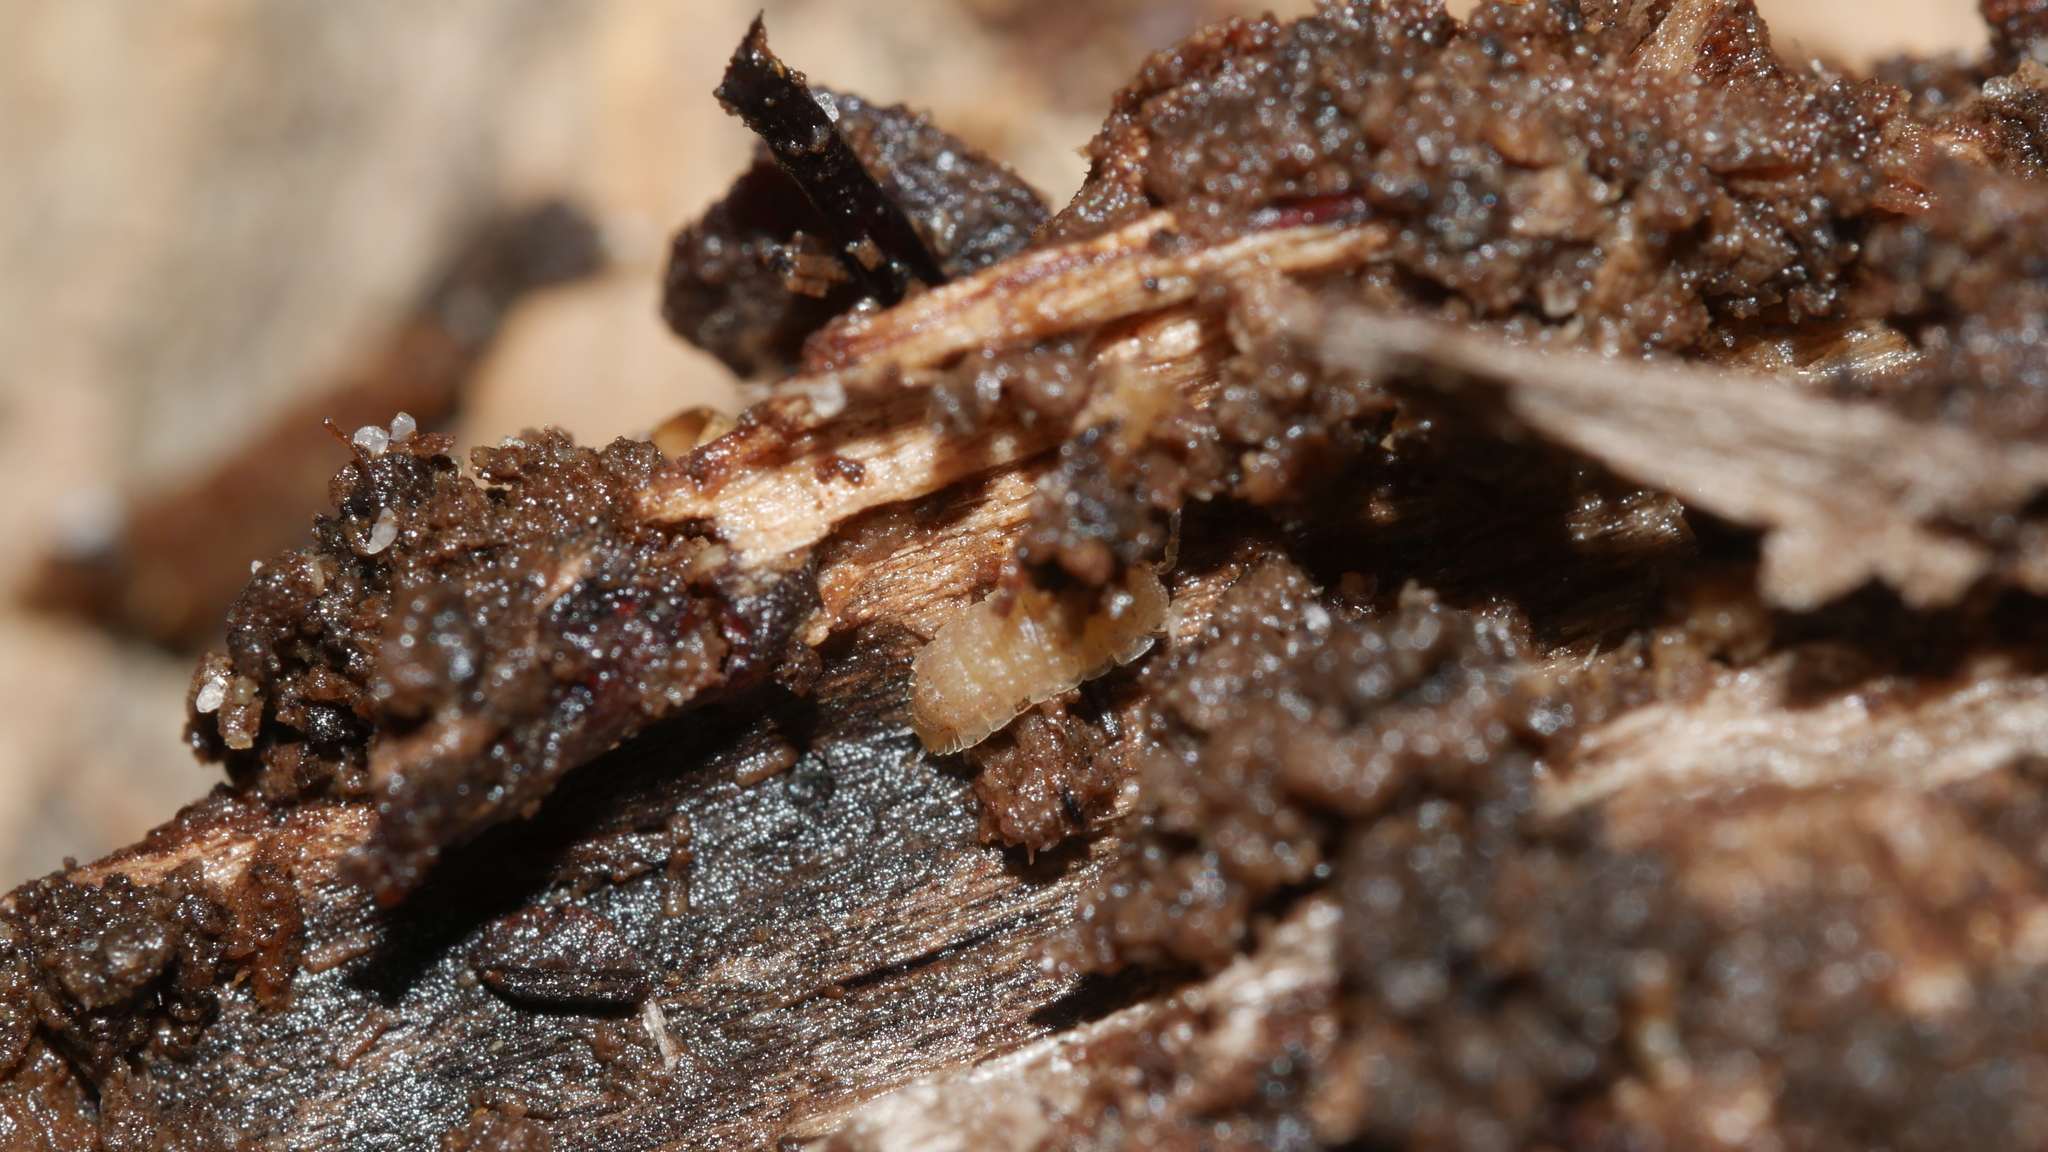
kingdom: Animalia
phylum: Arthropoda
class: Malacostraca
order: Isopoda
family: Trichoniscidae
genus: Haplophthalmus
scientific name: Haplophthalmus danicus
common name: Pillbug
